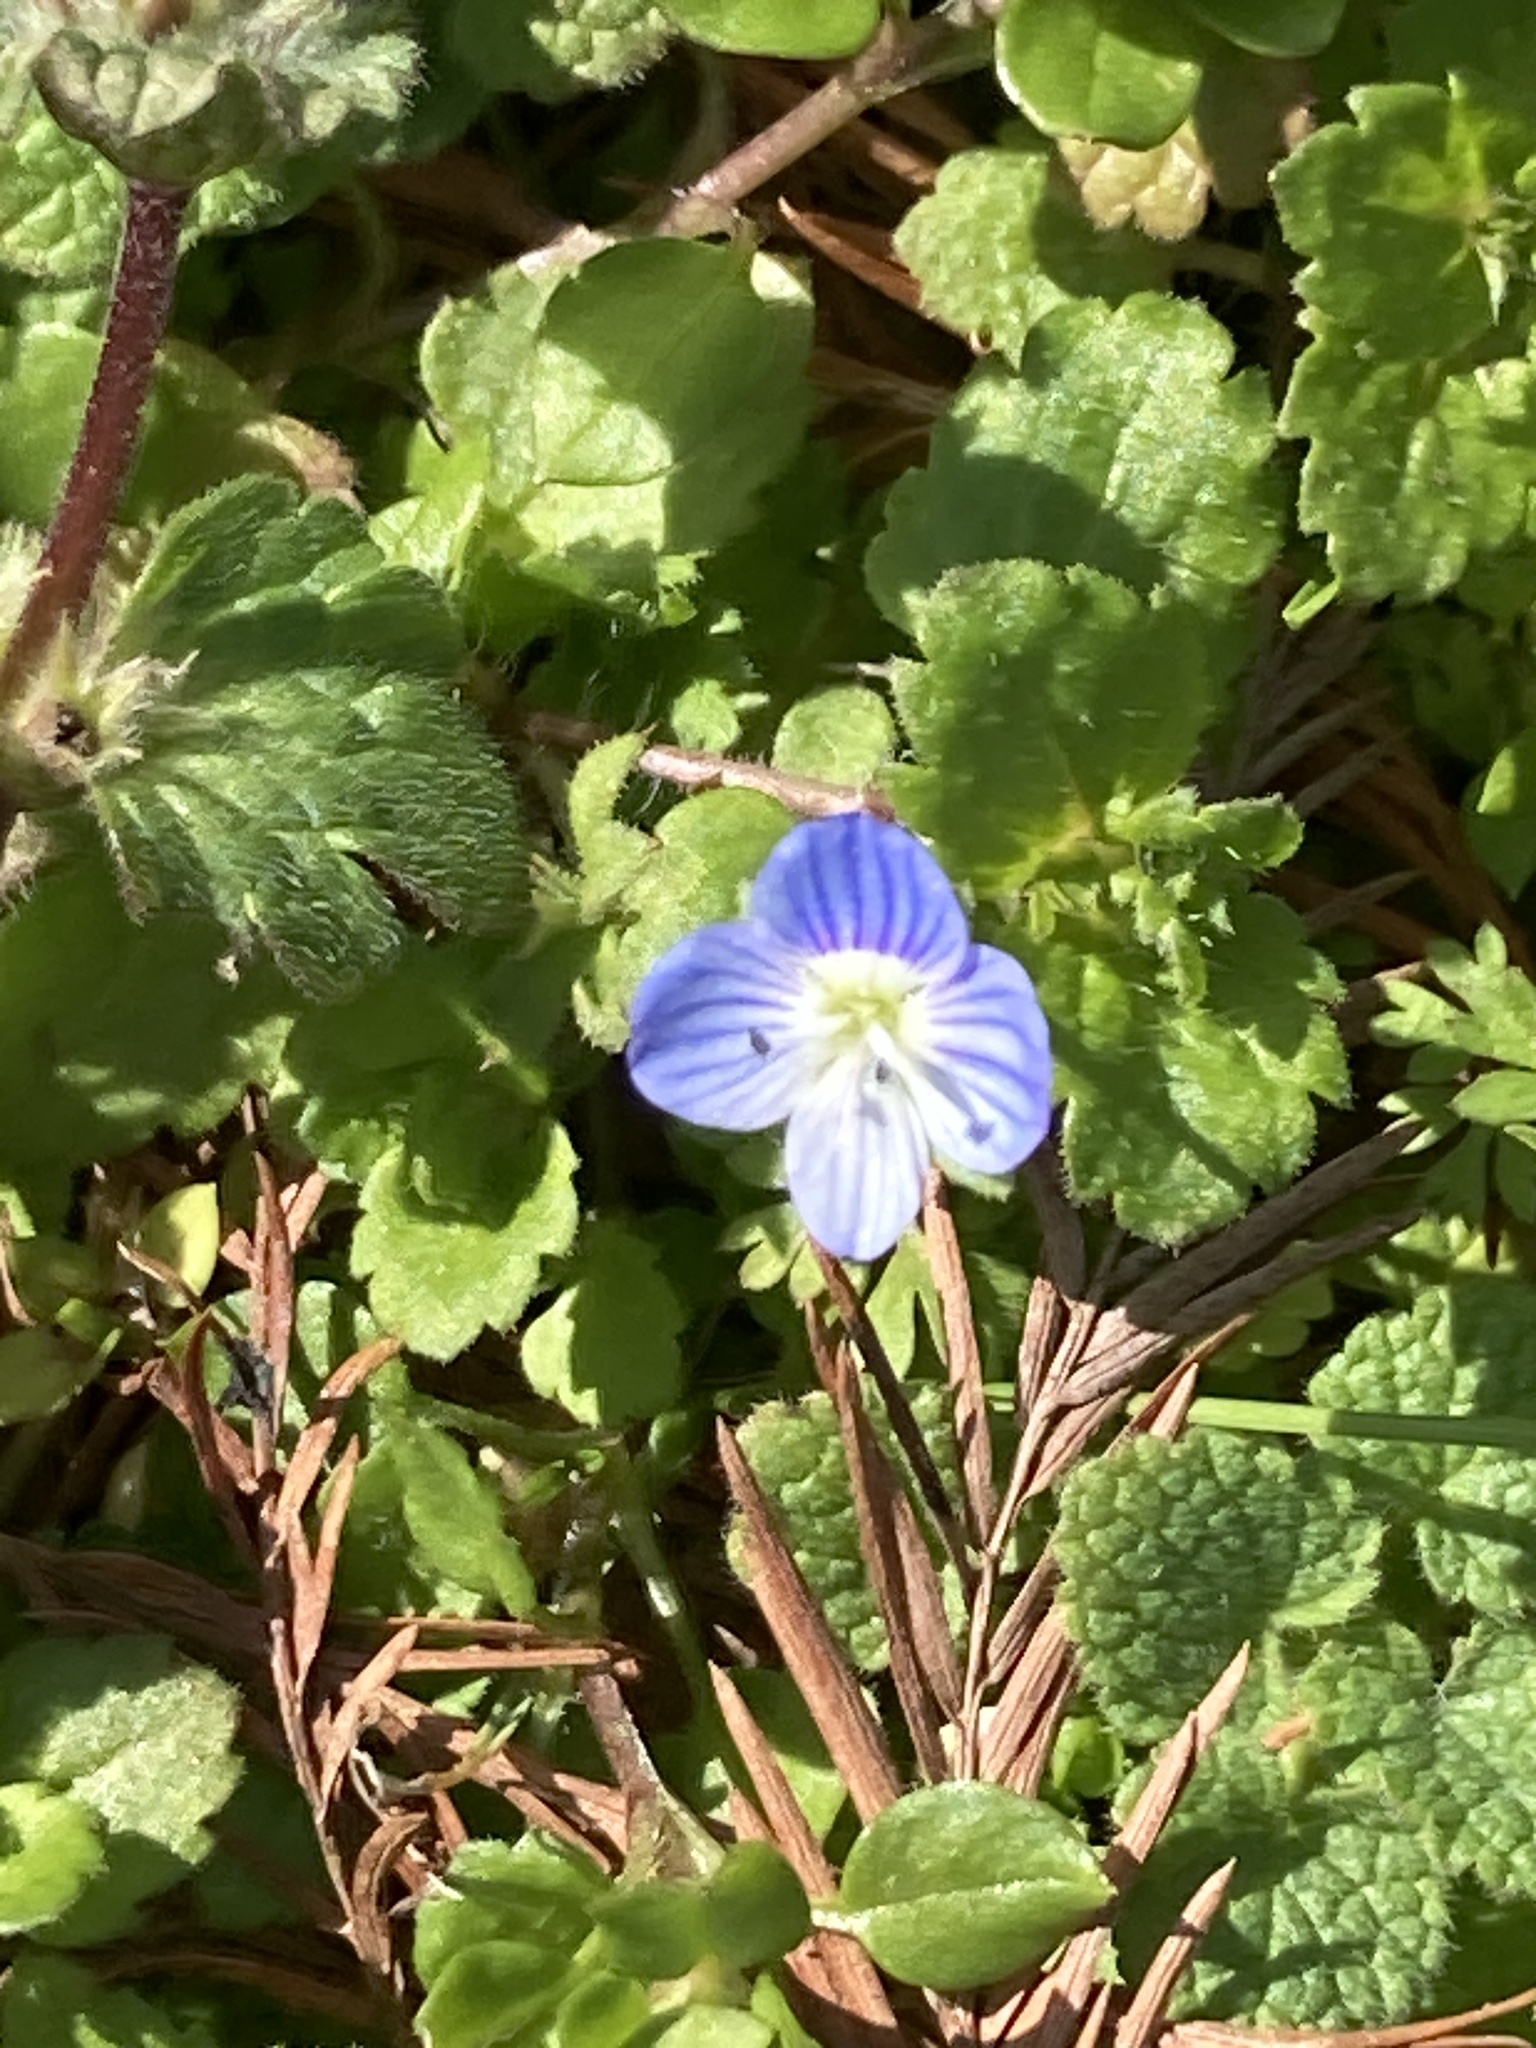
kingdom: Plantae
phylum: Tracheophyta
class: Magnoliopsida
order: Lamiales
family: Plantaginaceae
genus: Veronica
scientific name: Veronica persica
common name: Common field-speedwell
